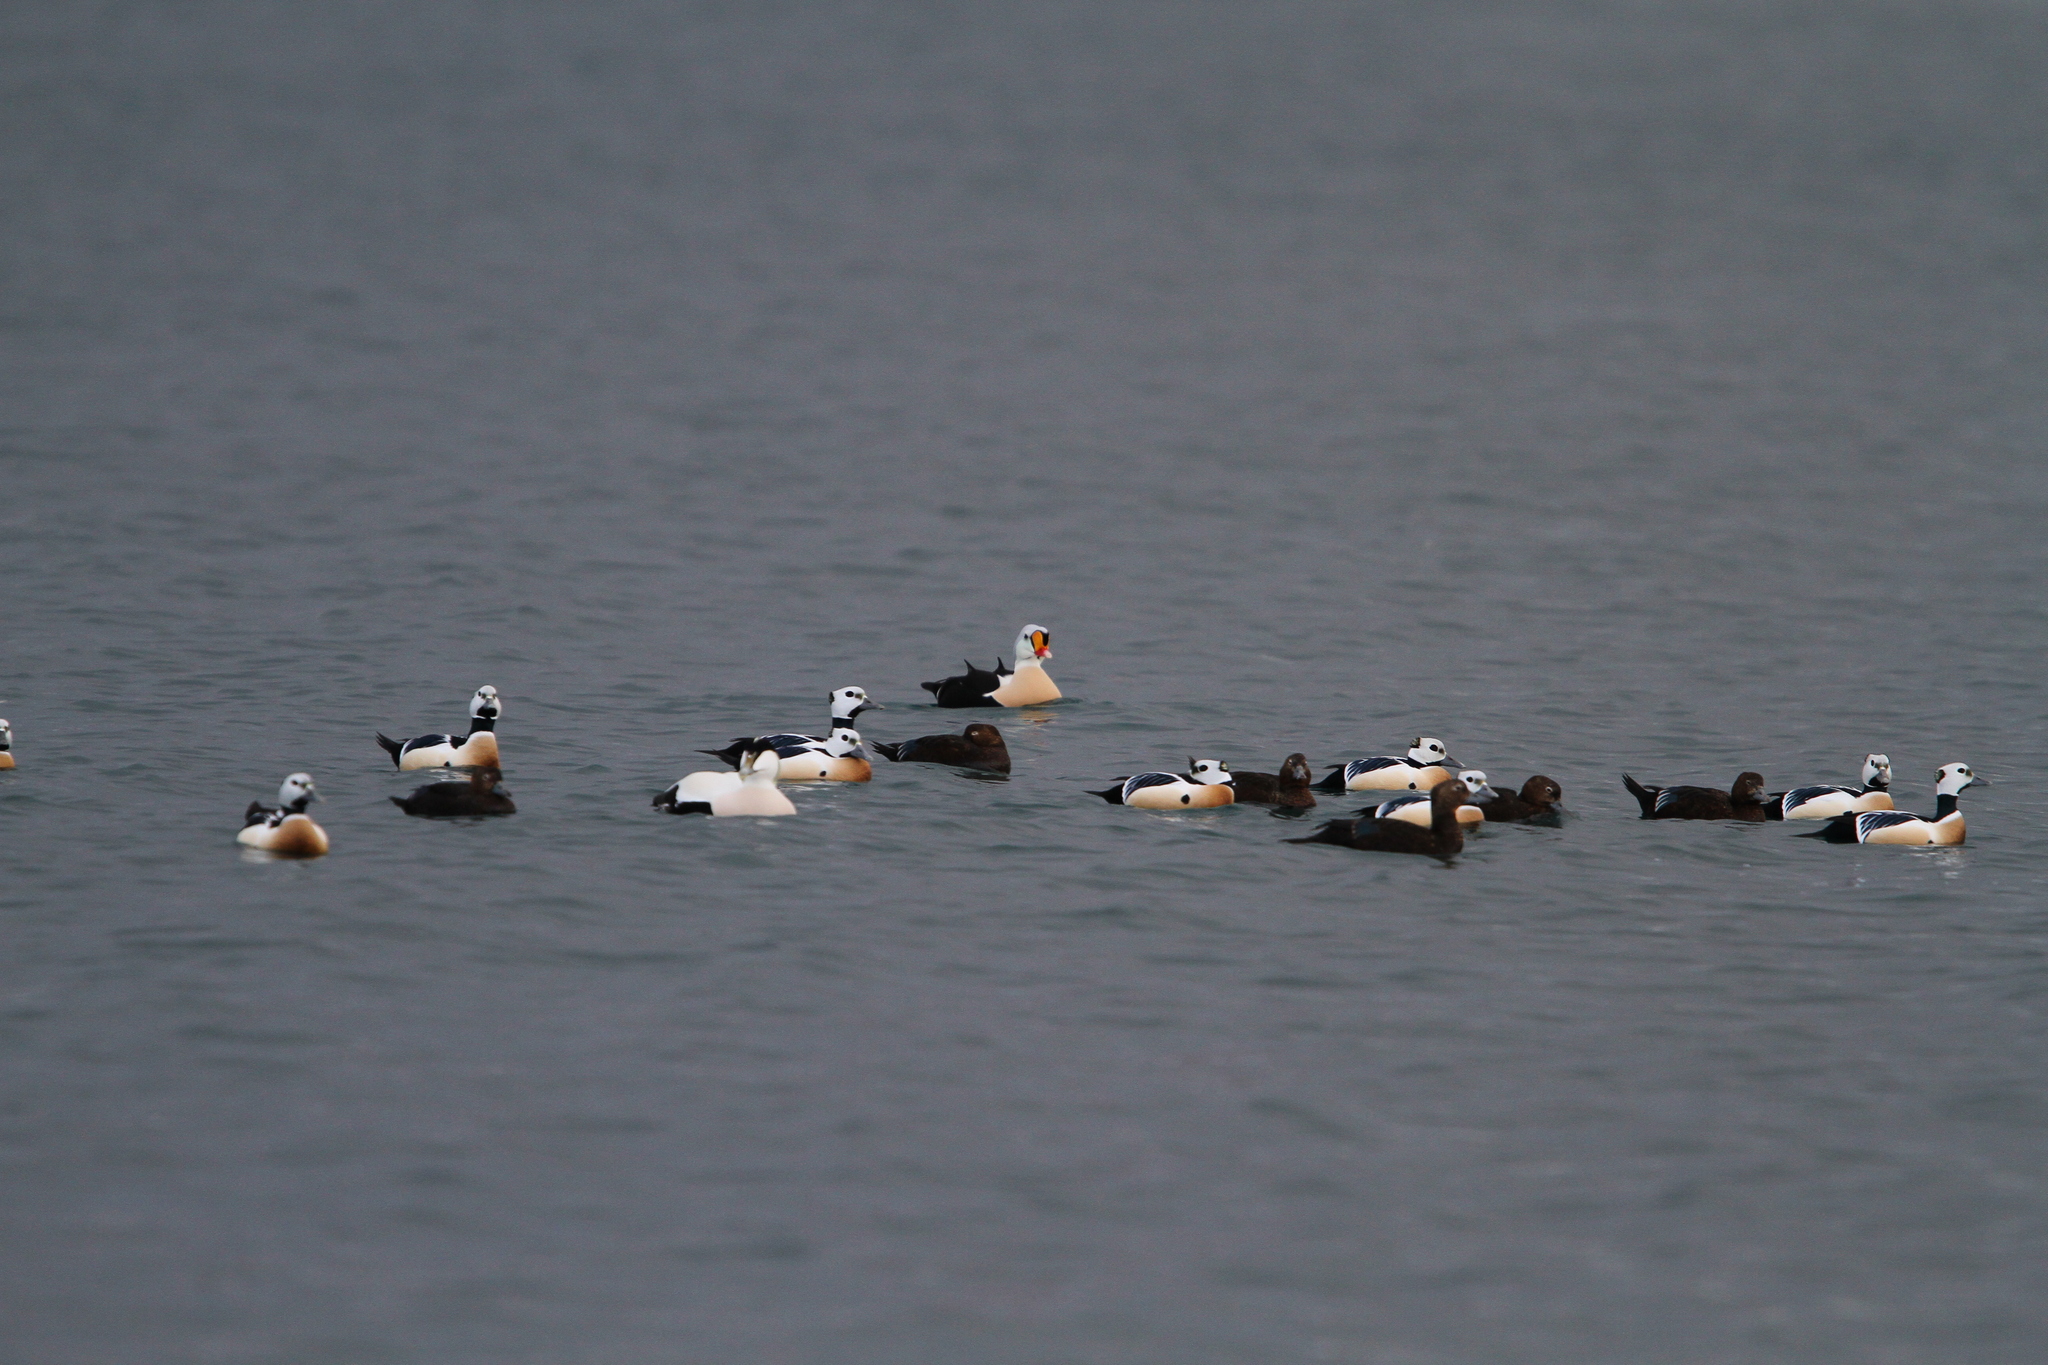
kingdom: Animalia
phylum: Chordata
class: Aves
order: Anseriformes
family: Anatidae
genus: Somateria
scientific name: Somateria spectabilis
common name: King eider
